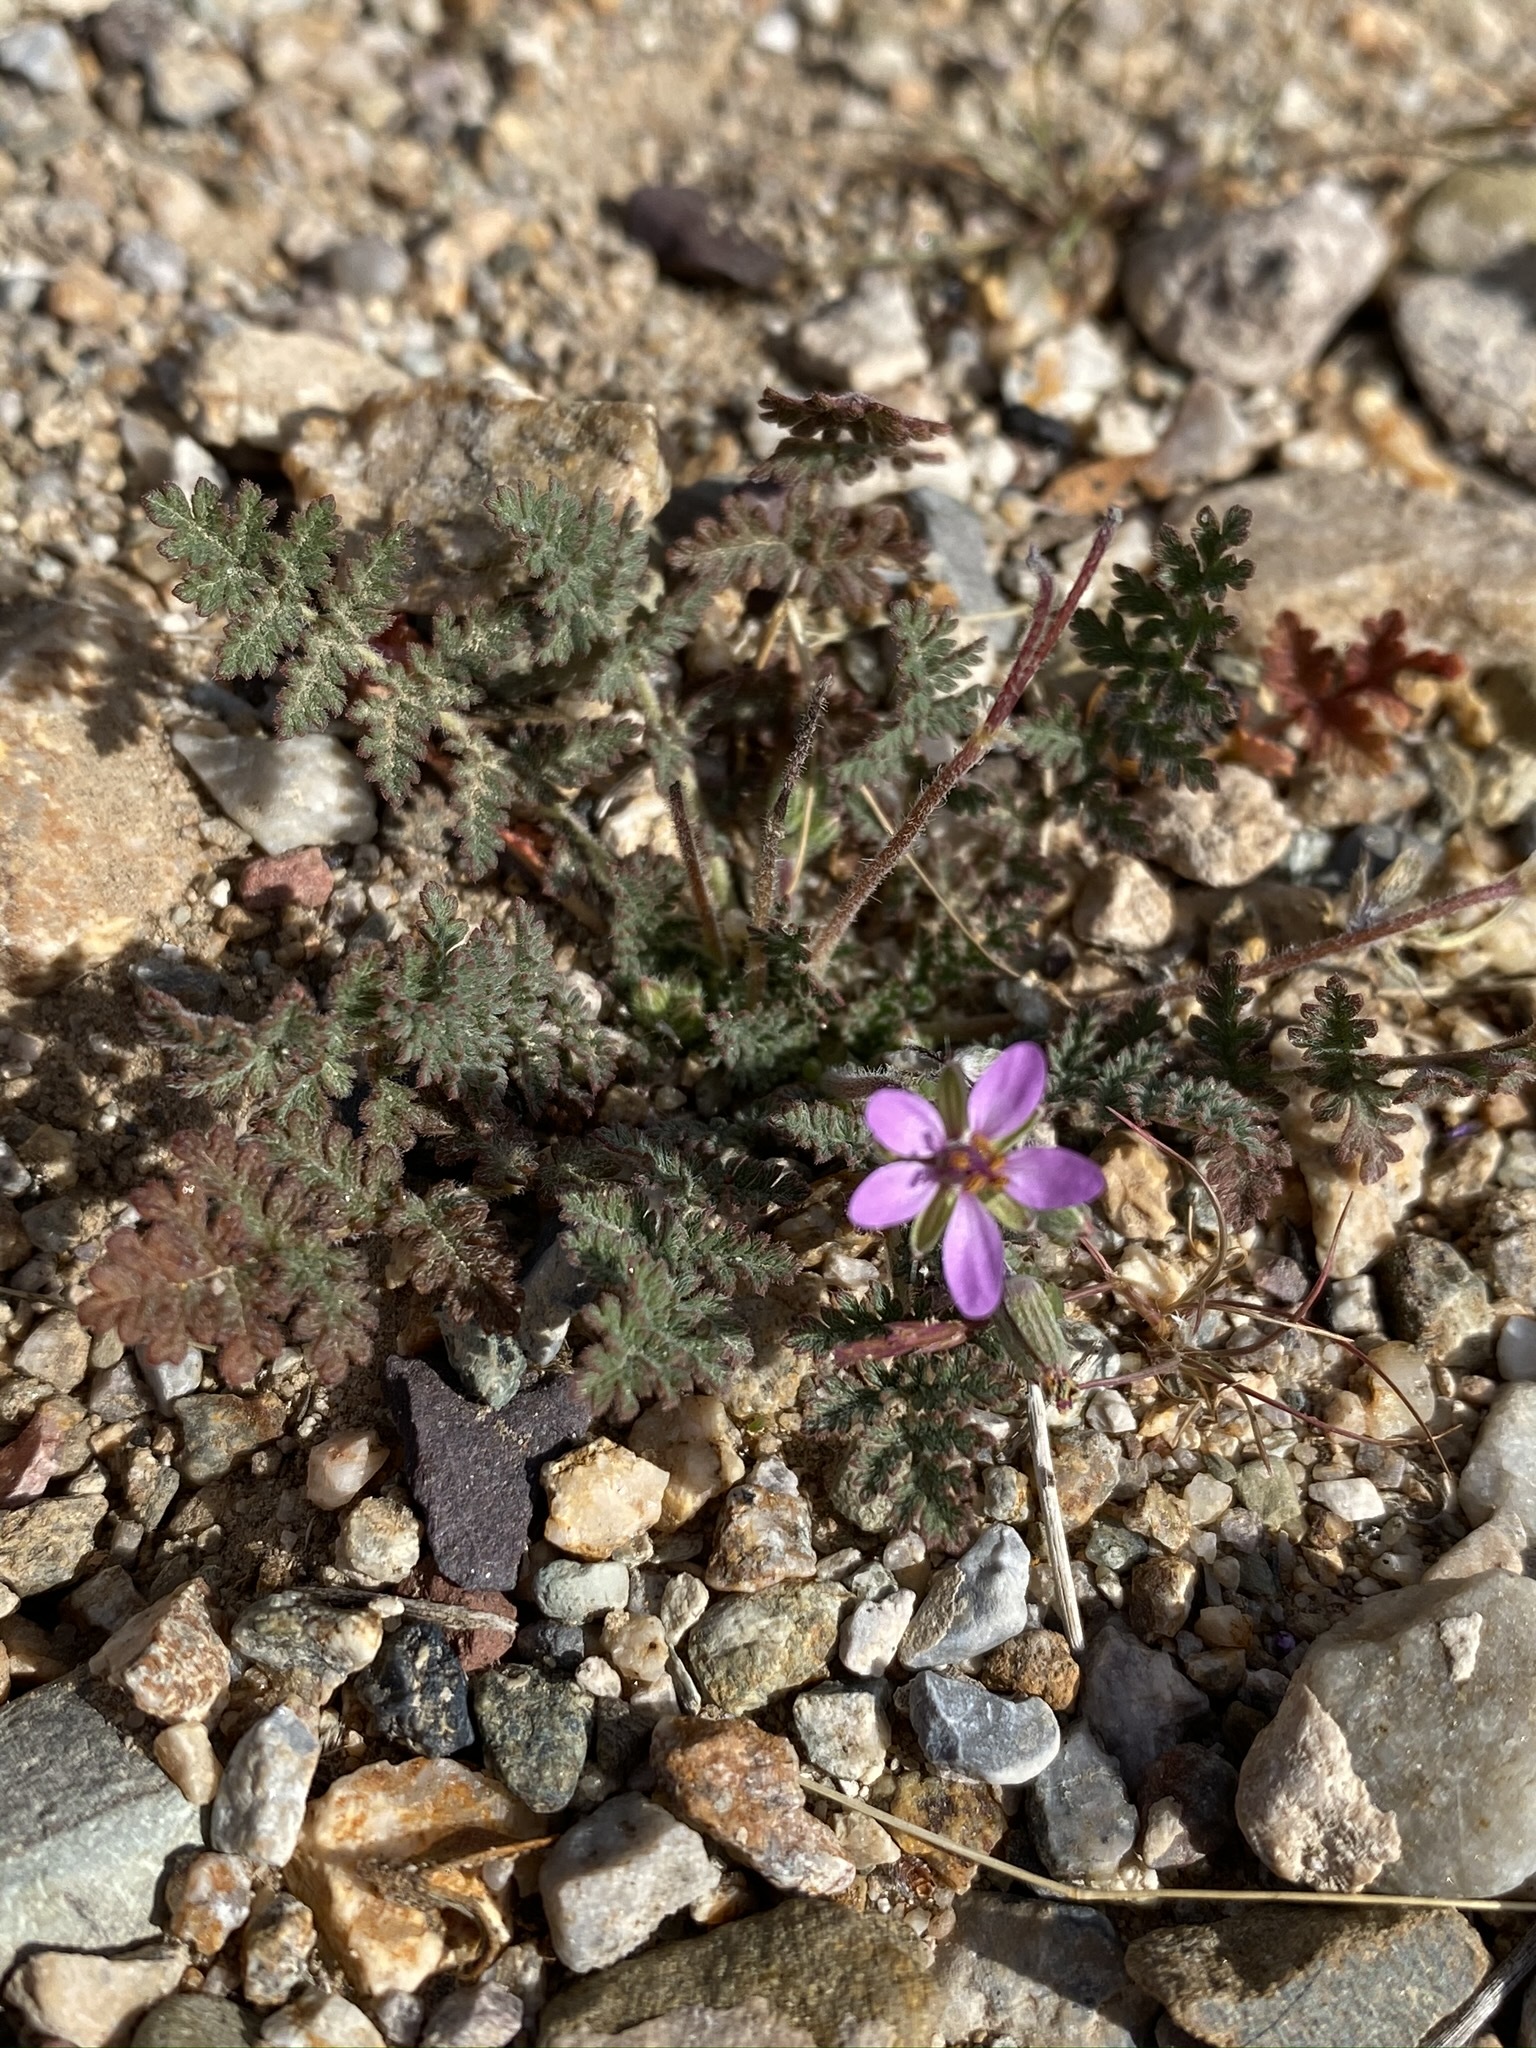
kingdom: Plantae
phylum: Tracheophyta
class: Magnoliopsida
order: Geraniales
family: Geraniaceae
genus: Erodium
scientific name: Erodium cicutarium
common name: Common stork's-bill
